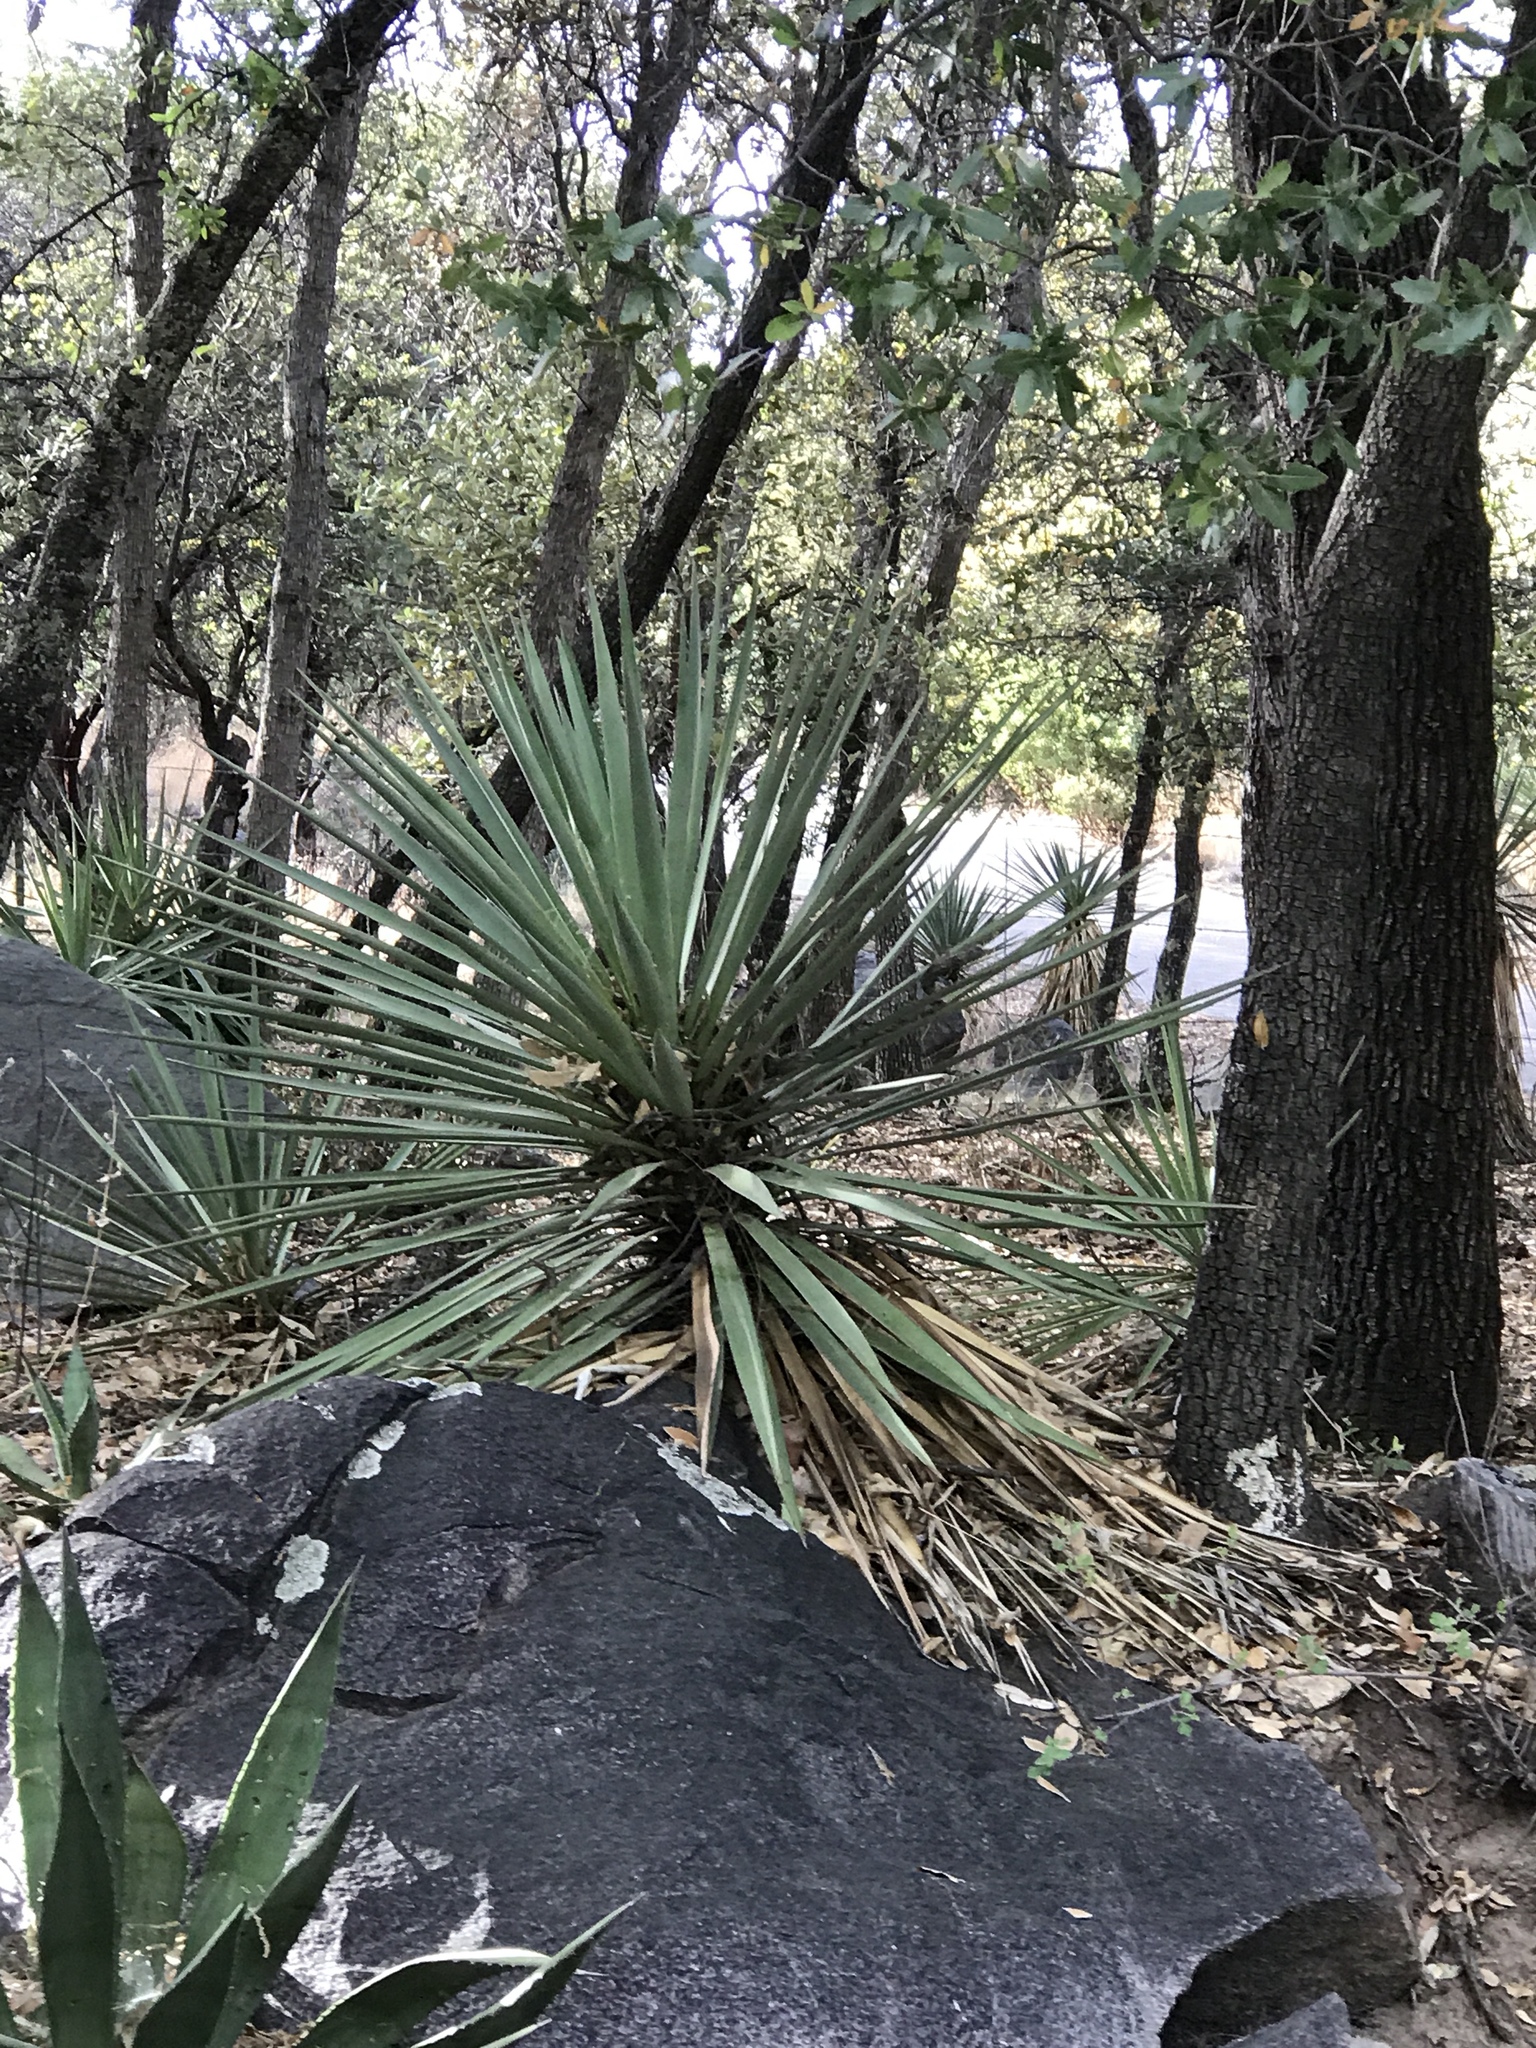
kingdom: Plantae
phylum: Tracheophyta
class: Liliopsida
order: Asparagales
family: Asparagaceae
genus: Yucca
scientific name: Yucca madrensis
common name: Hoary yucca
